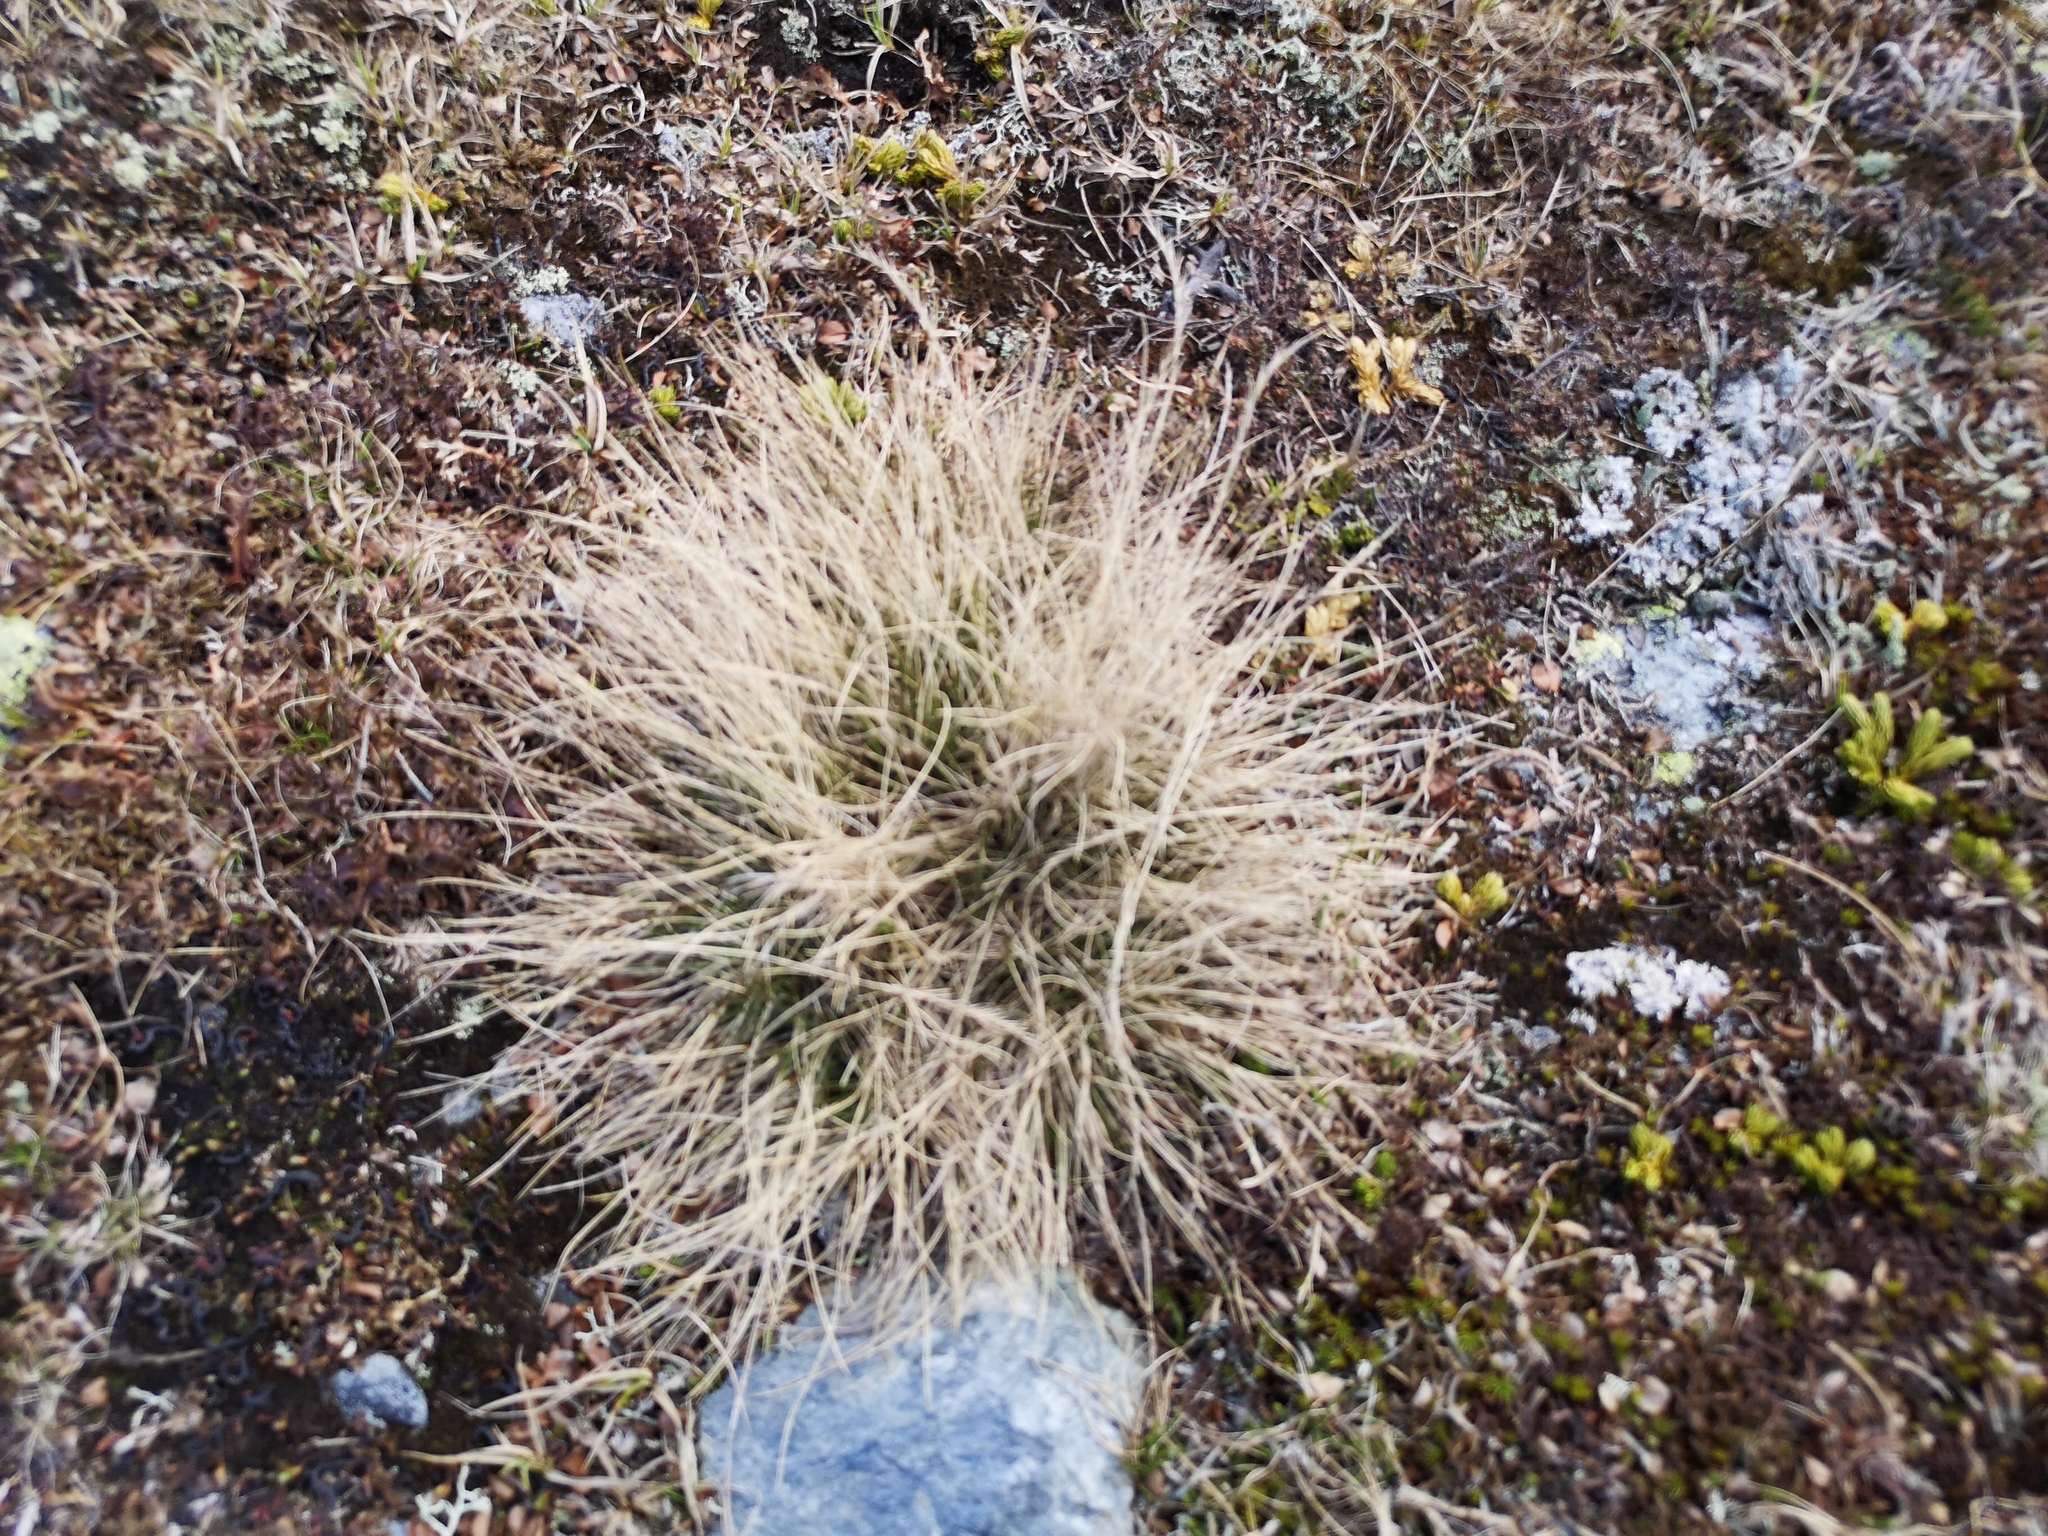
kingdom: Plantae
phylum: Tracheophyta
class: Liliopsida
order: Poales
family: Poaceae
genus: Nardus
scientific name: Nardus stricta
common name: Mat-grass
